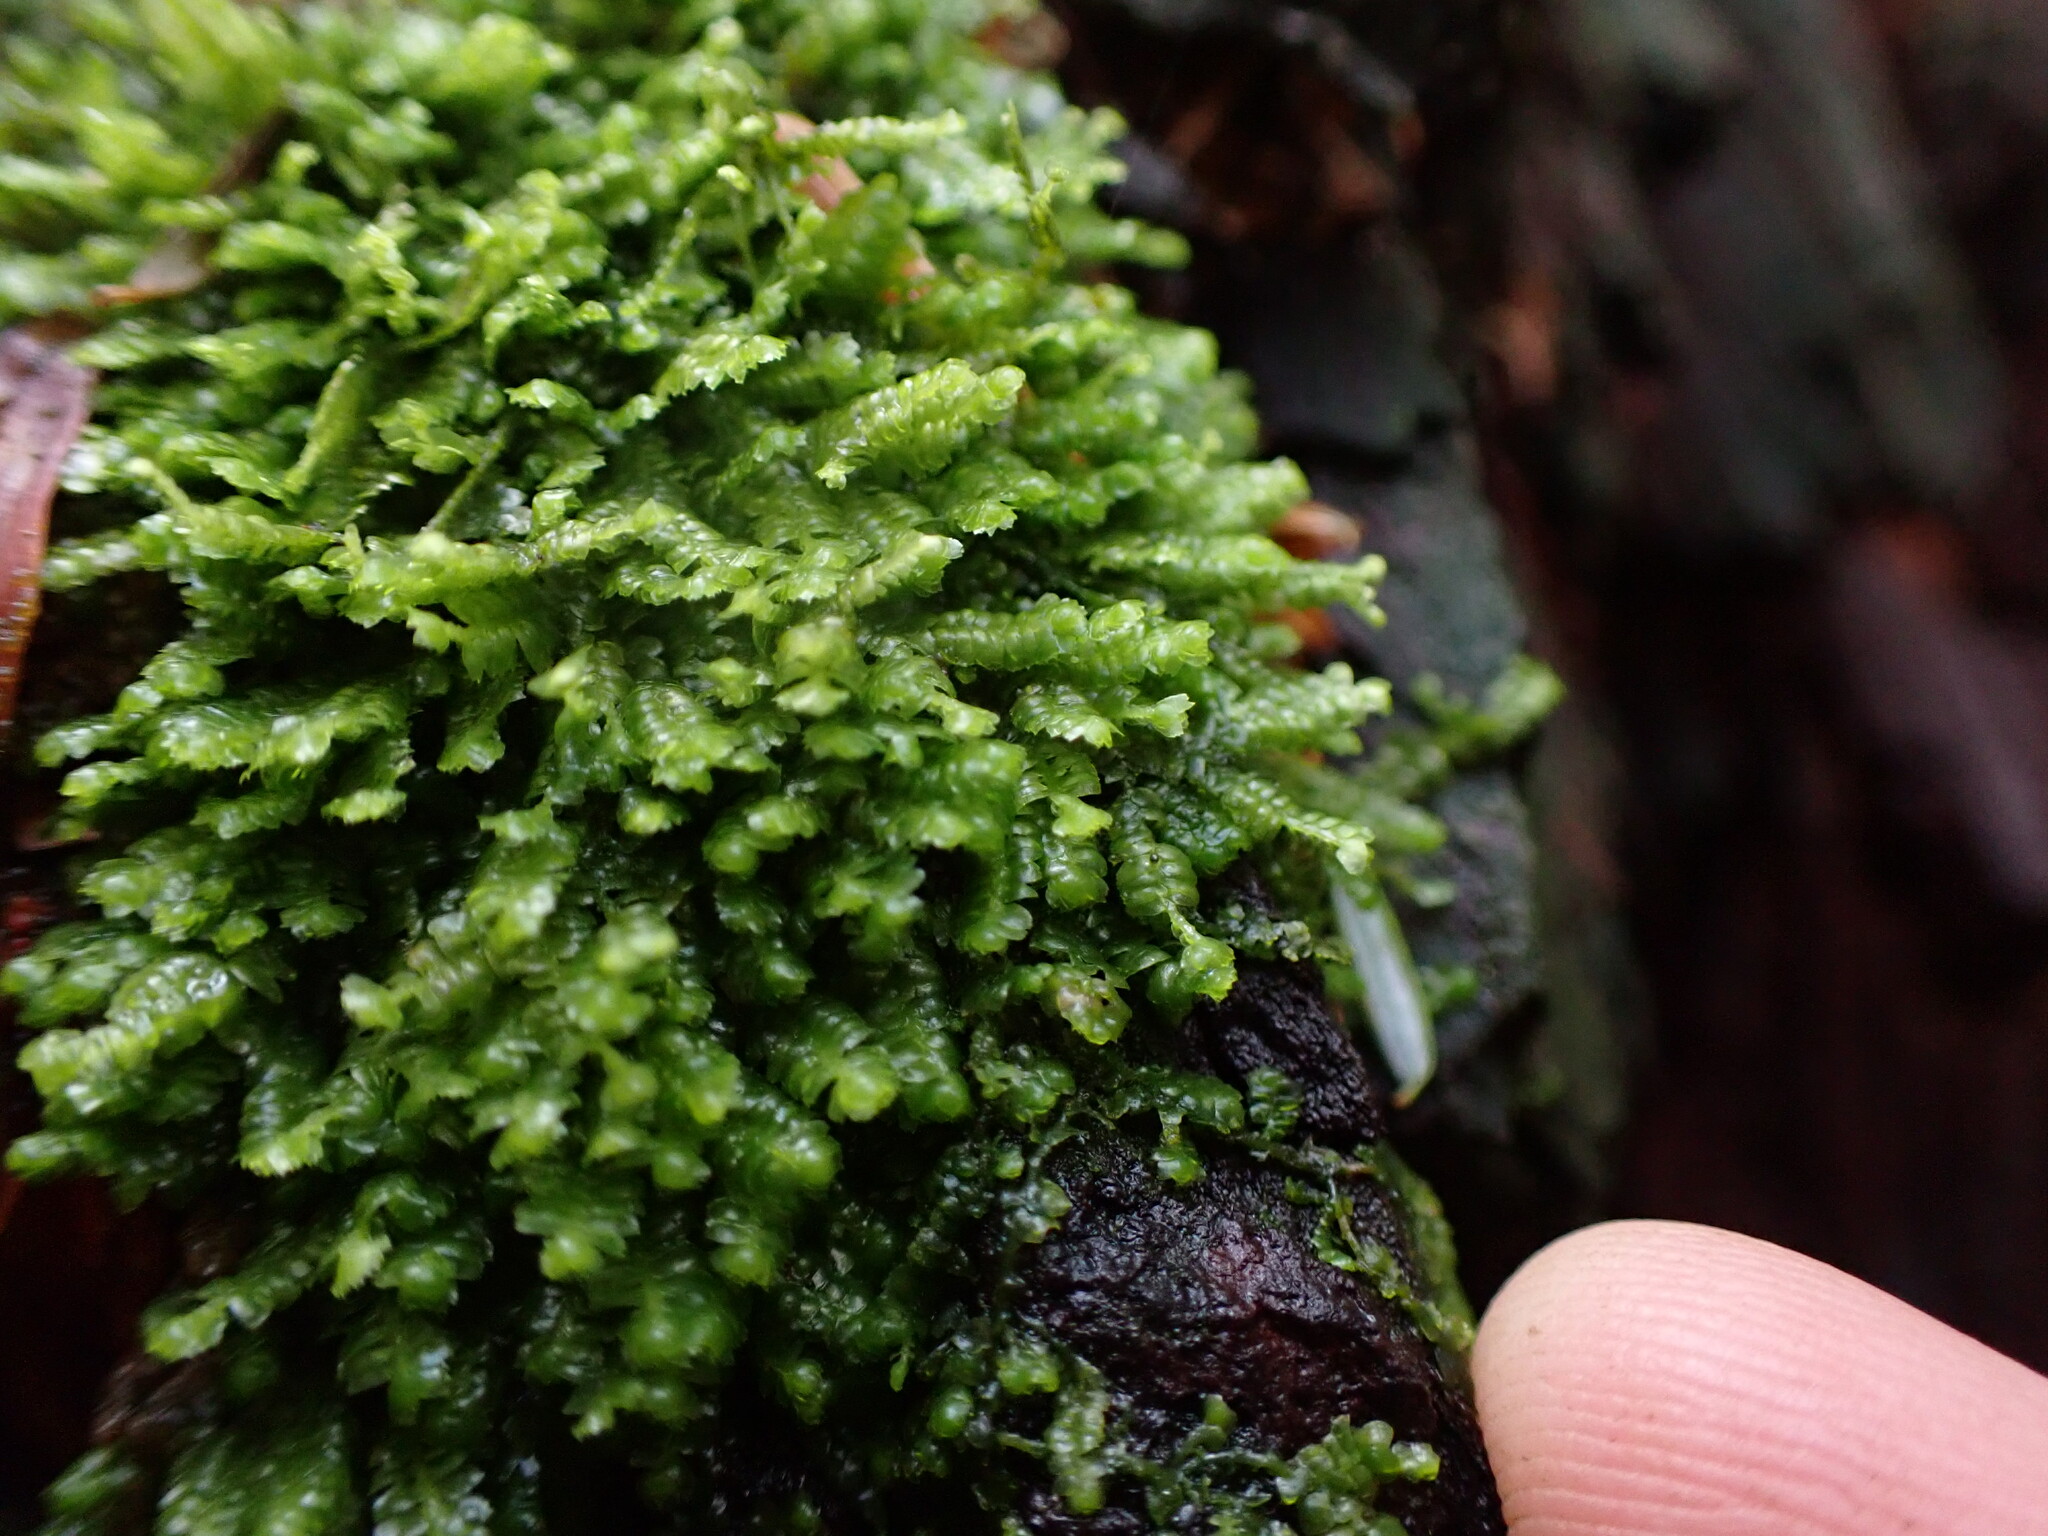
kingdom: Plantae
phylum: Marchantiophyta
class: Jungermanniopsida
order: Jungermanniales
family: Lepidoziaceae
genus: Bazzania
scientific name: Bazzania denudata
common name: Naked whipwort
